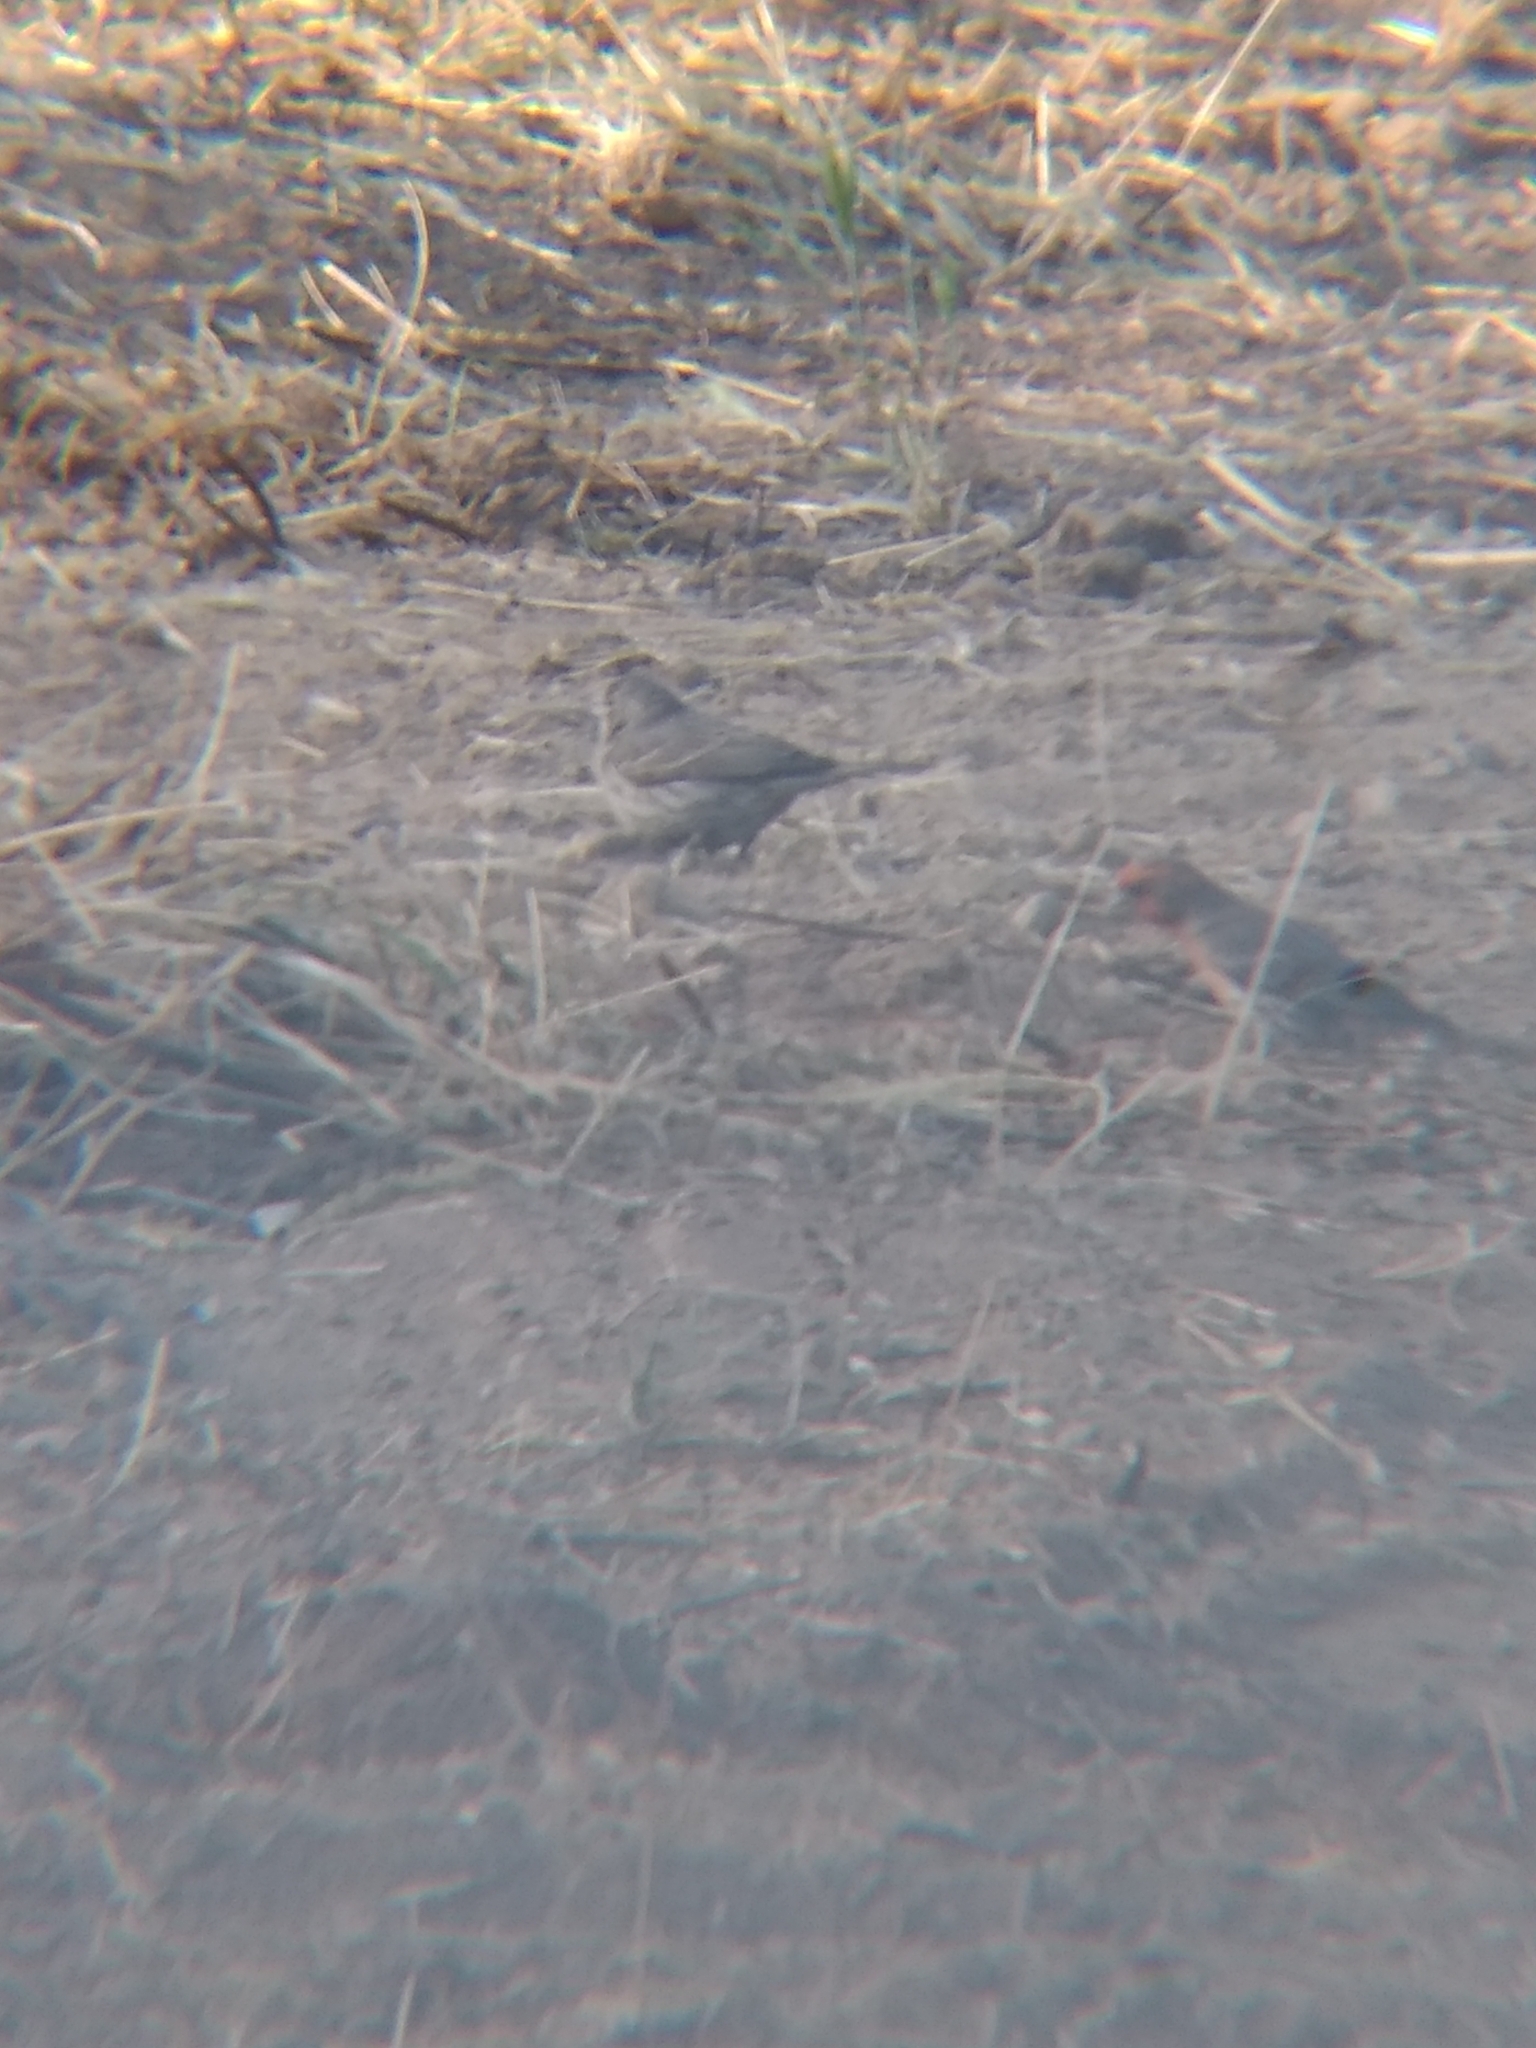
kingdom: Animalia
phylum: Chordata
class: Aves
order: Passeriformes
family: Fringillidae
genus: Haemorhous
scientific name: Haemorhous mexicanus
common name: House finch
